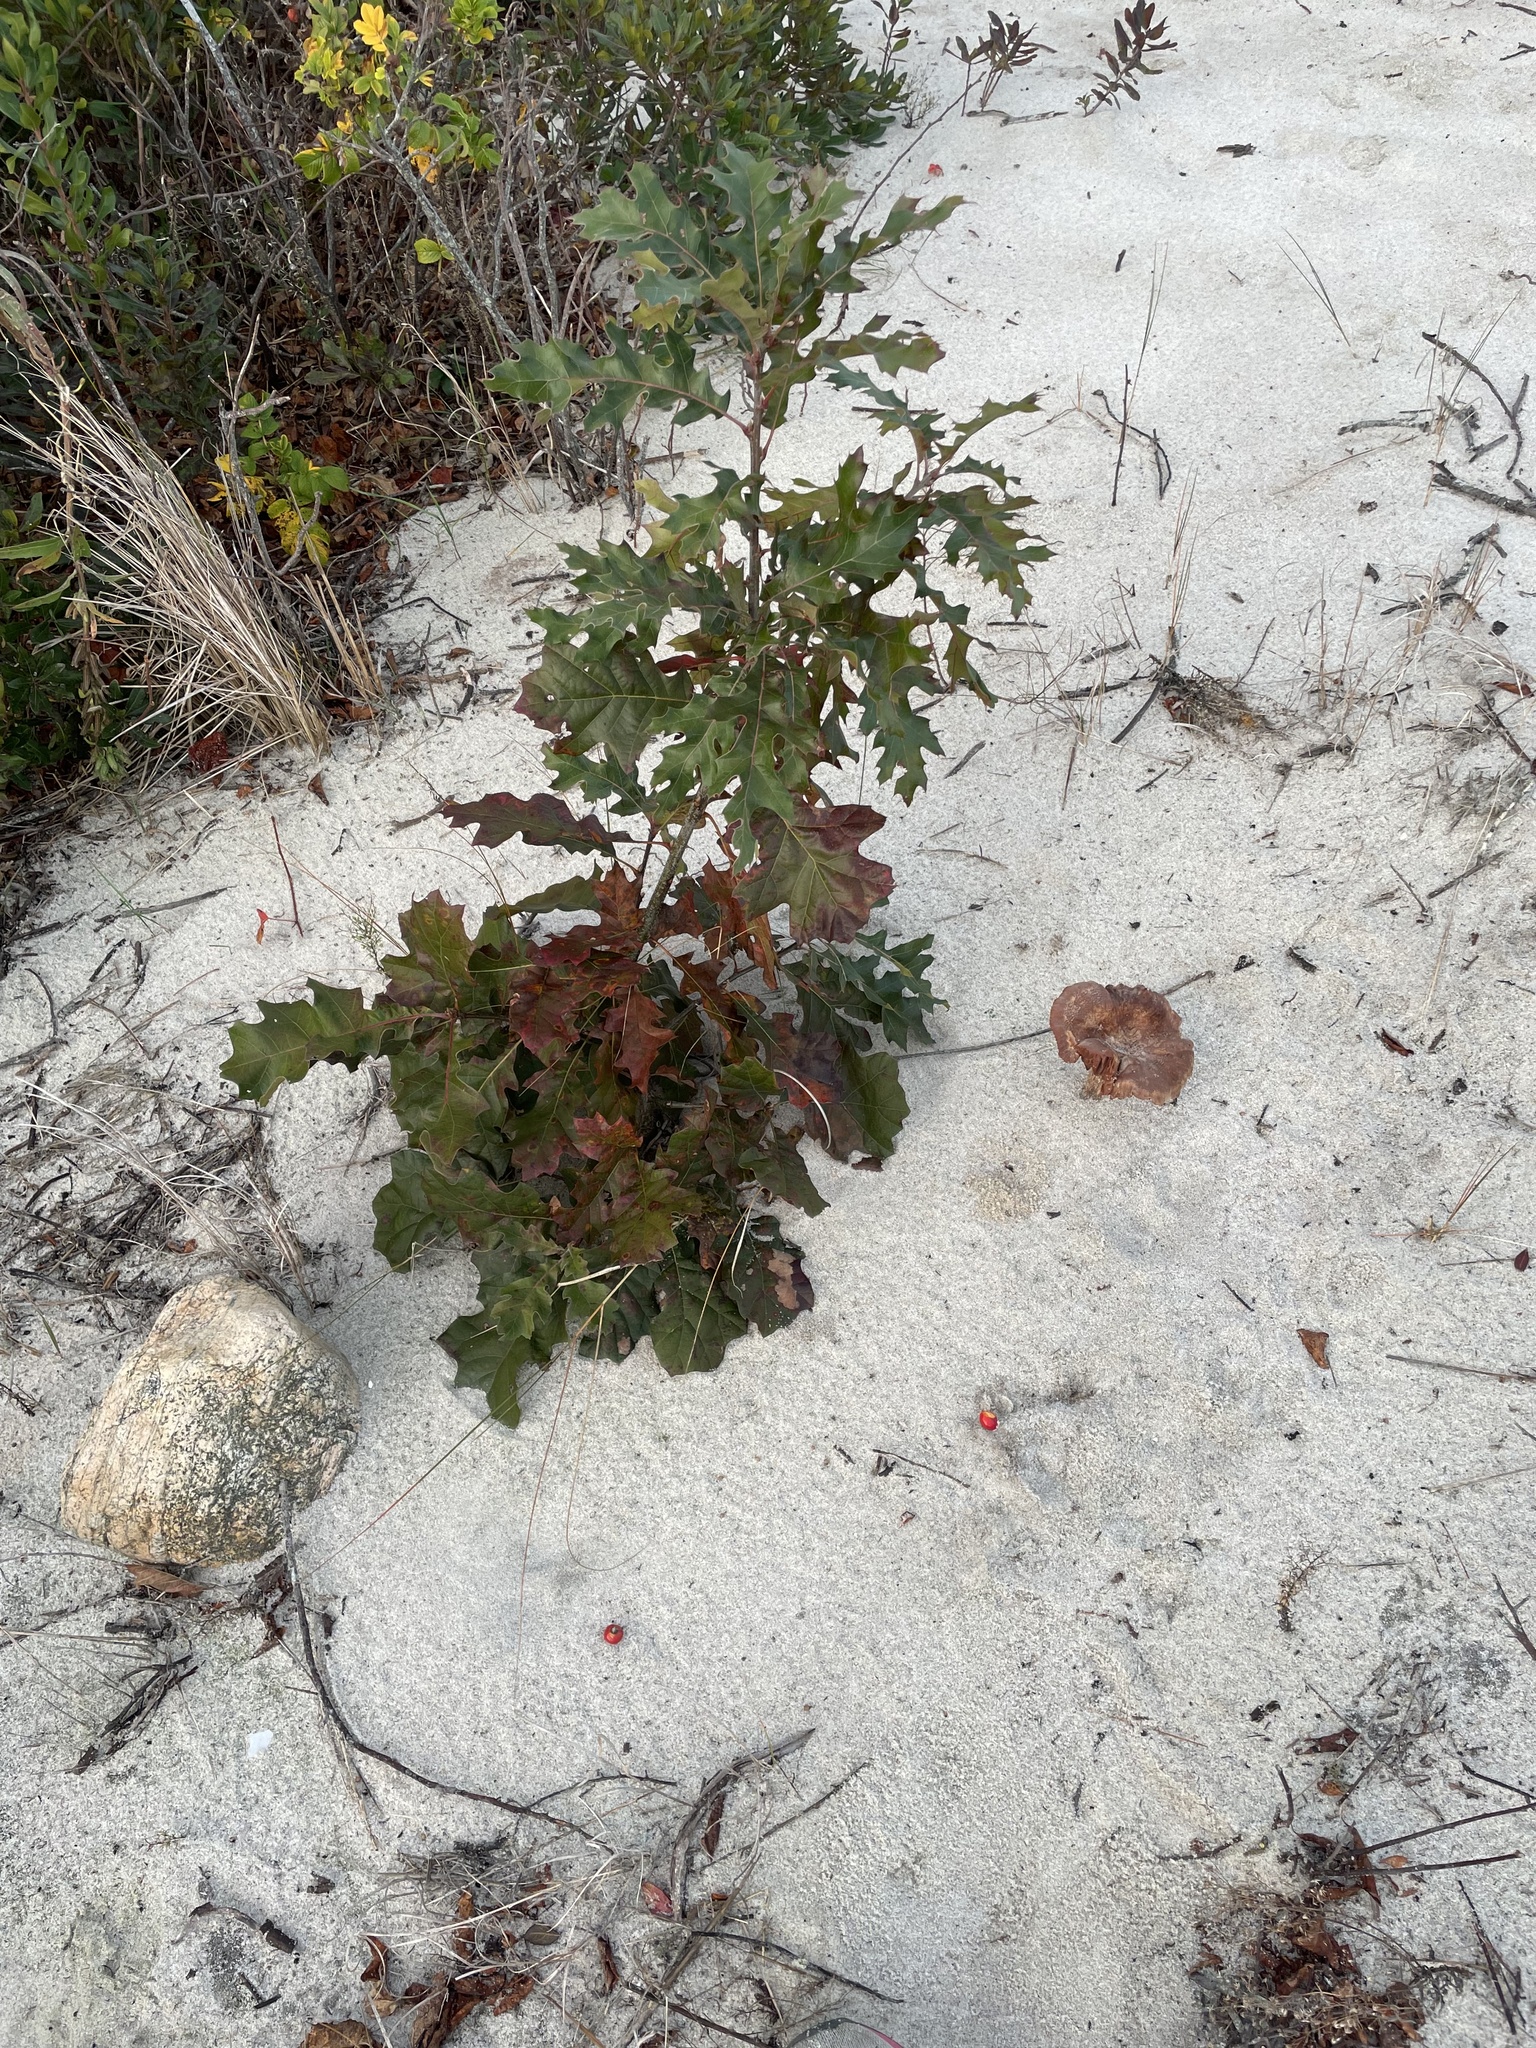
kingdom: Plantae
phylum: Tracheophyta
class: Magnoliopsida
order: Fagales
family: Fagaceae
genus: Quercus
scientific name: Quercus velutina
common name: Black oak
